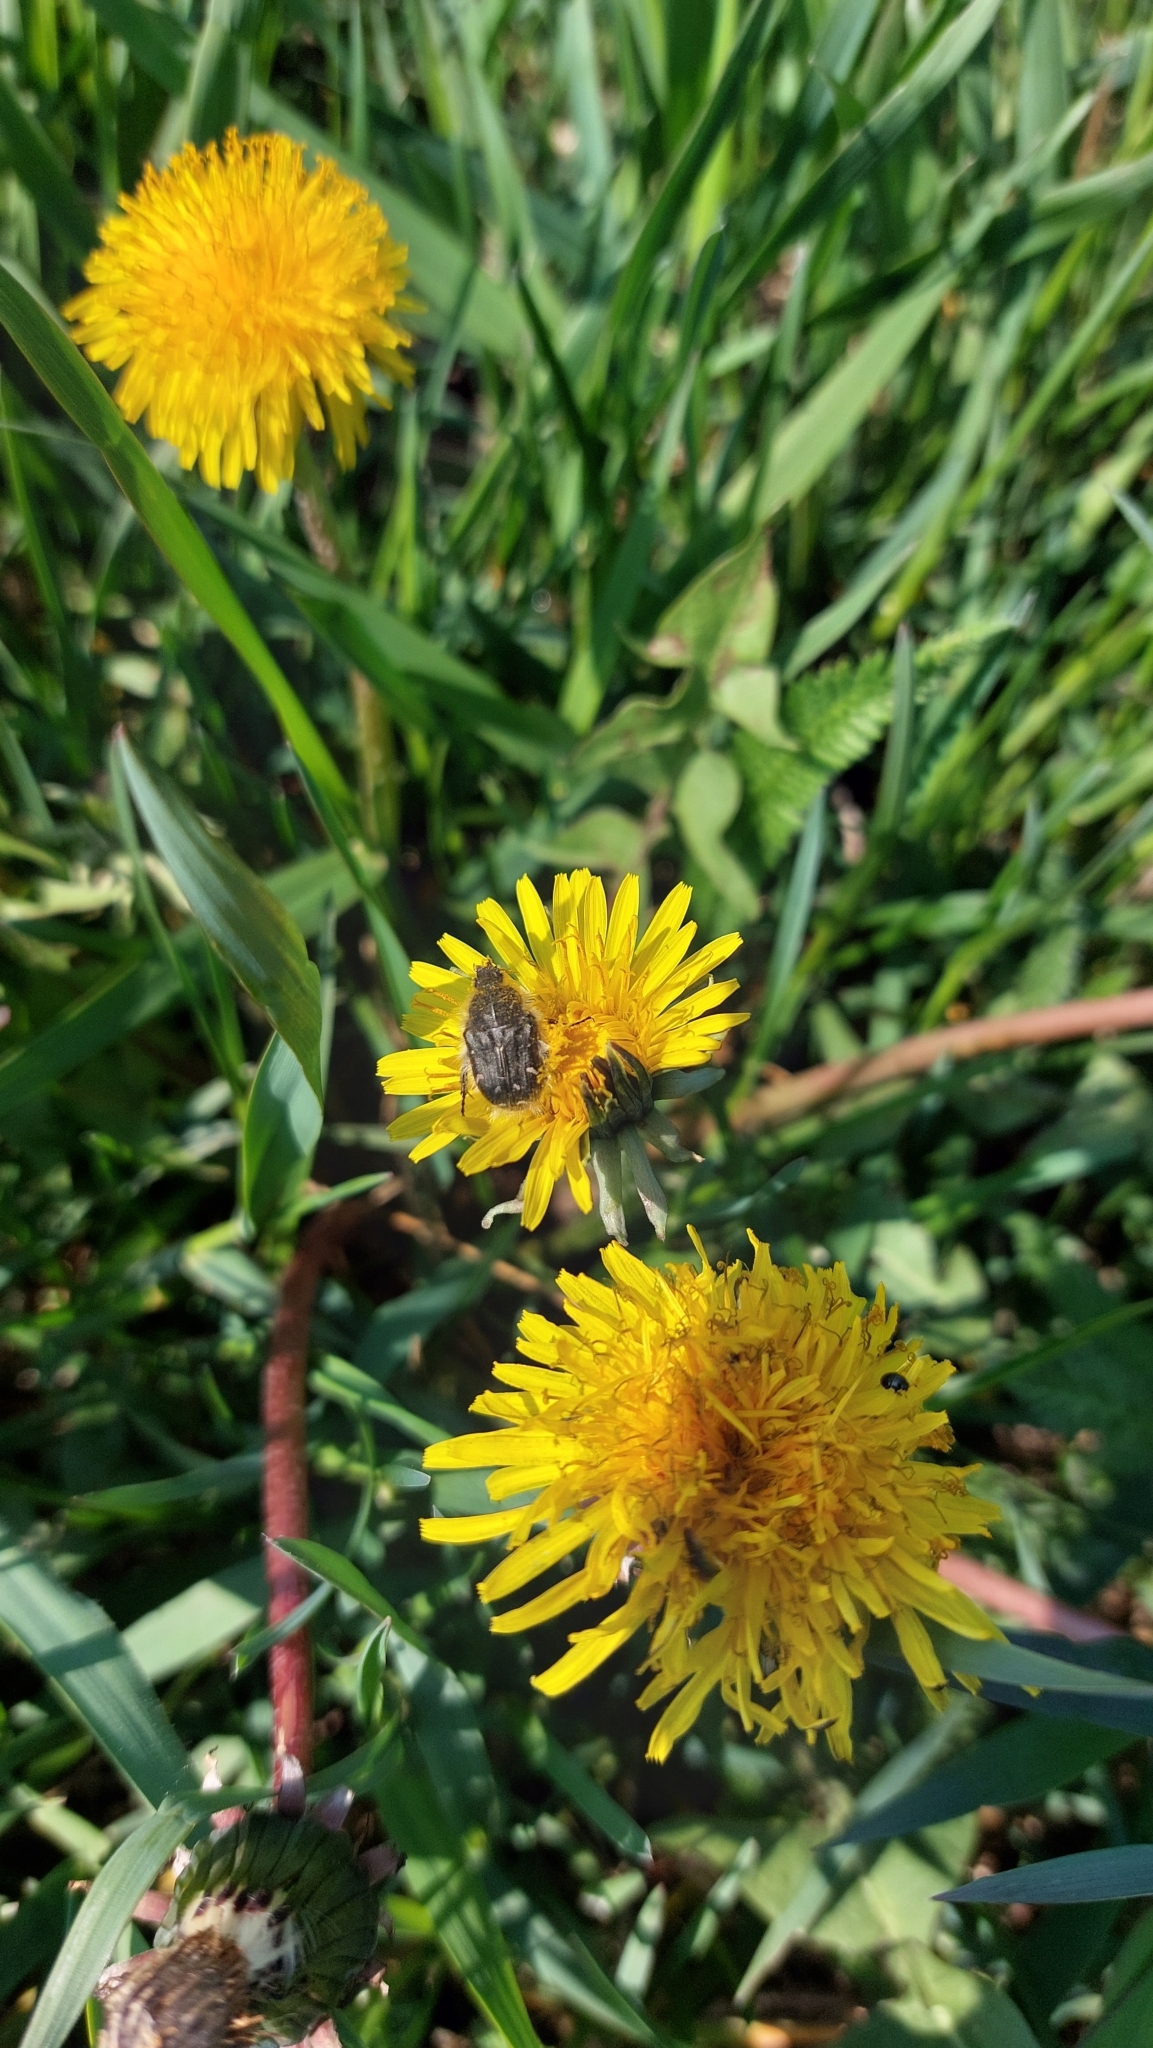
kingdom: Animalia
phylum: Arthropoda
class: Insecta
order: Coleoptera
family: Scarabaeidae
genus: Tropinota
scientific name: Tropinota hirta
